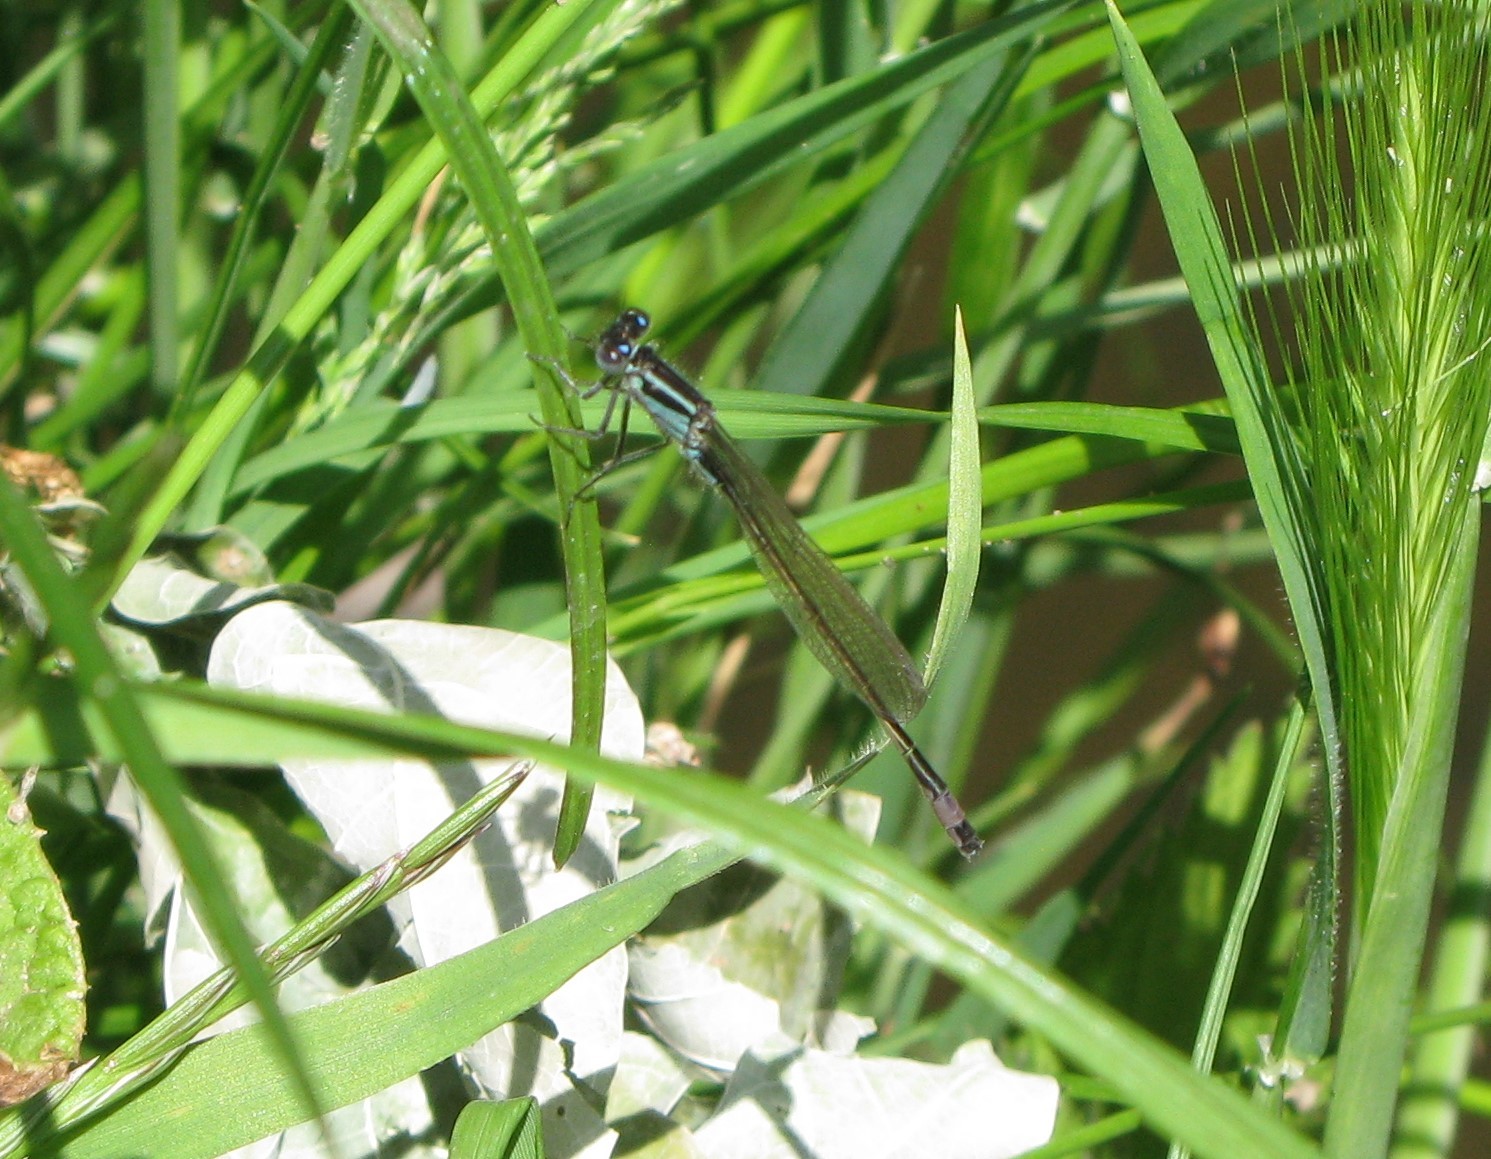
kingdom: Animalia
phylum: Arthropoda
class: Insecta
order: Odonata
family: Coenagrionidae
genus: Ischnura
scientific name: Ischnura elegans
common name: Blue-tailed damselfly
